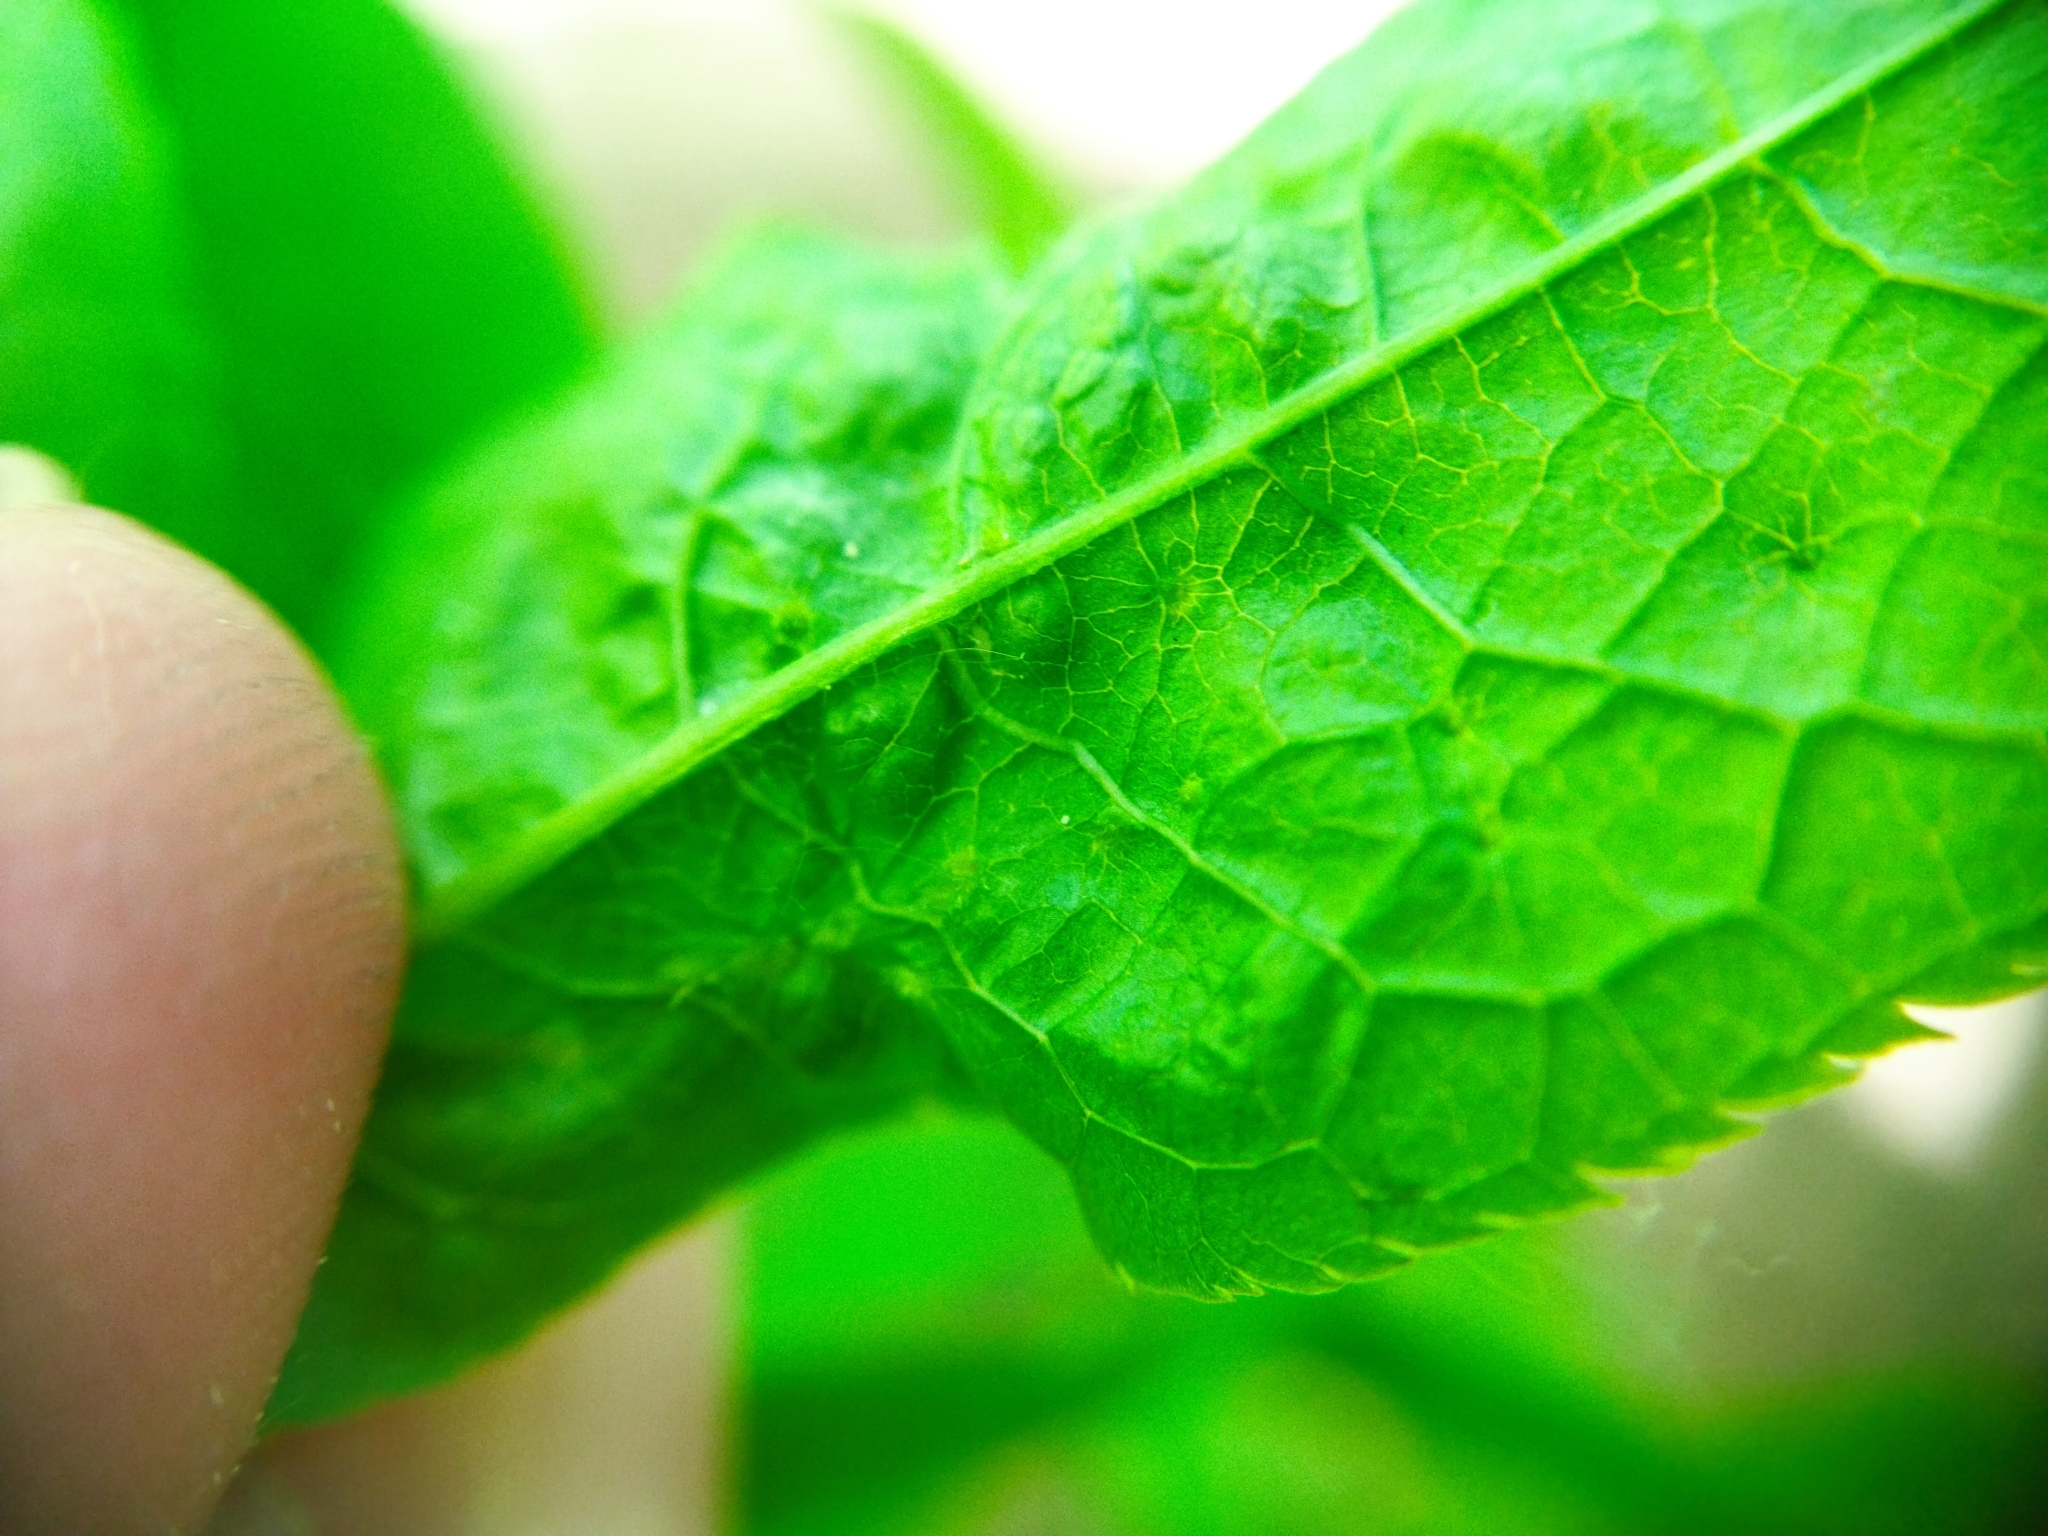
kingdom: Animalia
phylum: Arthropoda
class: Arachnida
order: Trombidiformes
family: Eriophyidae
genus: Phyllocoptes
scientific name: Phyllocoptes eupadi
